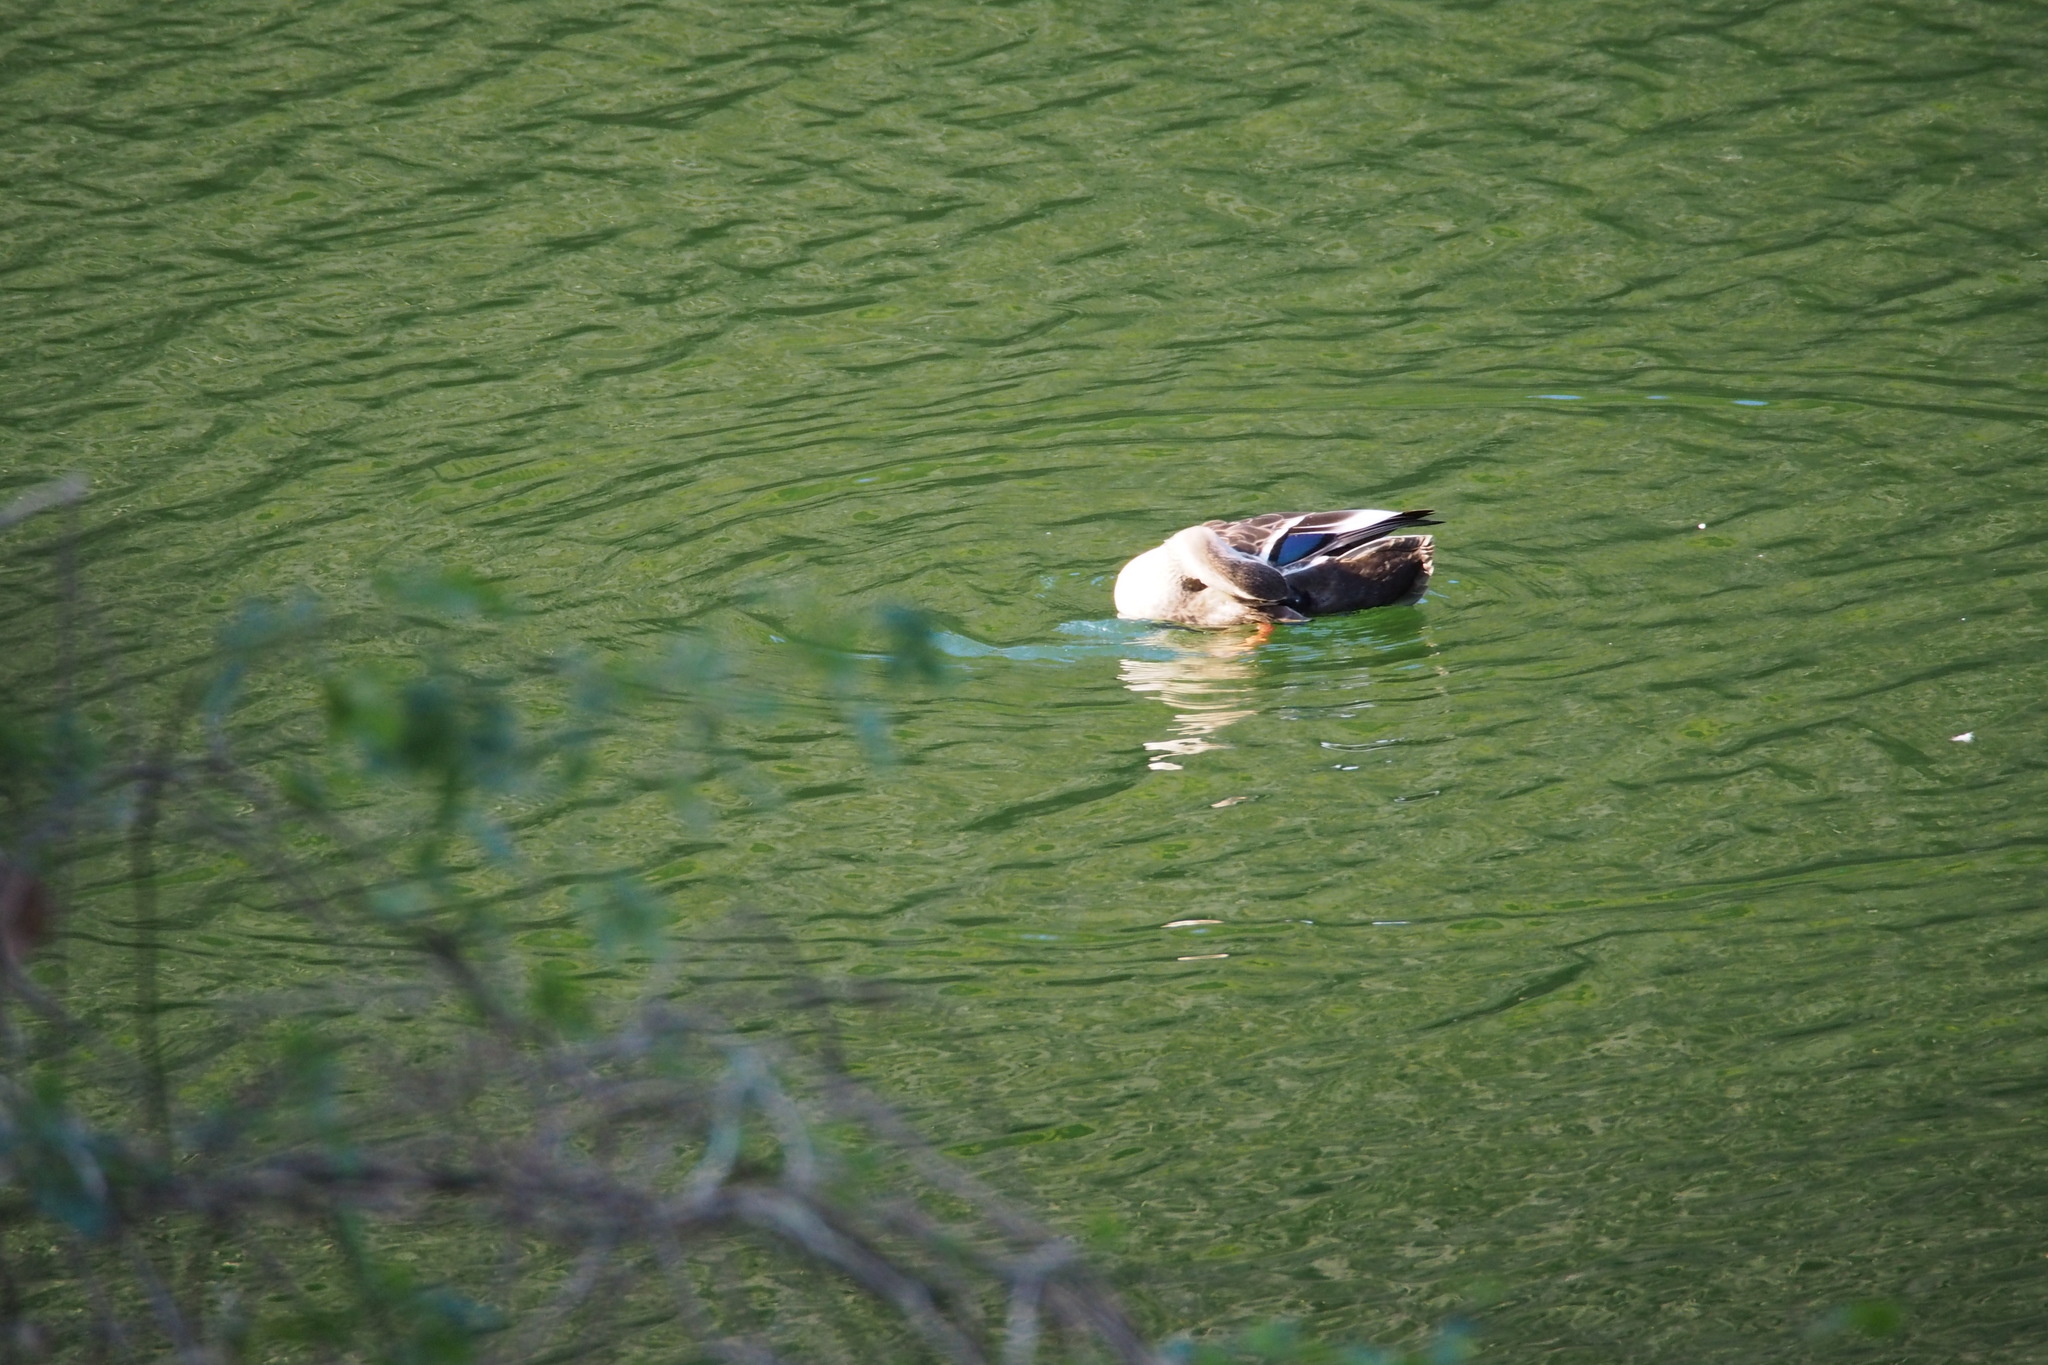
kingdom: Animalia
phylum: Chordata
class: Aves
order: Anseriformes
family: Anatidae
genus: Anas
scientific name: Anas zonorhyncha
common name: Eastern spot-billed duck
